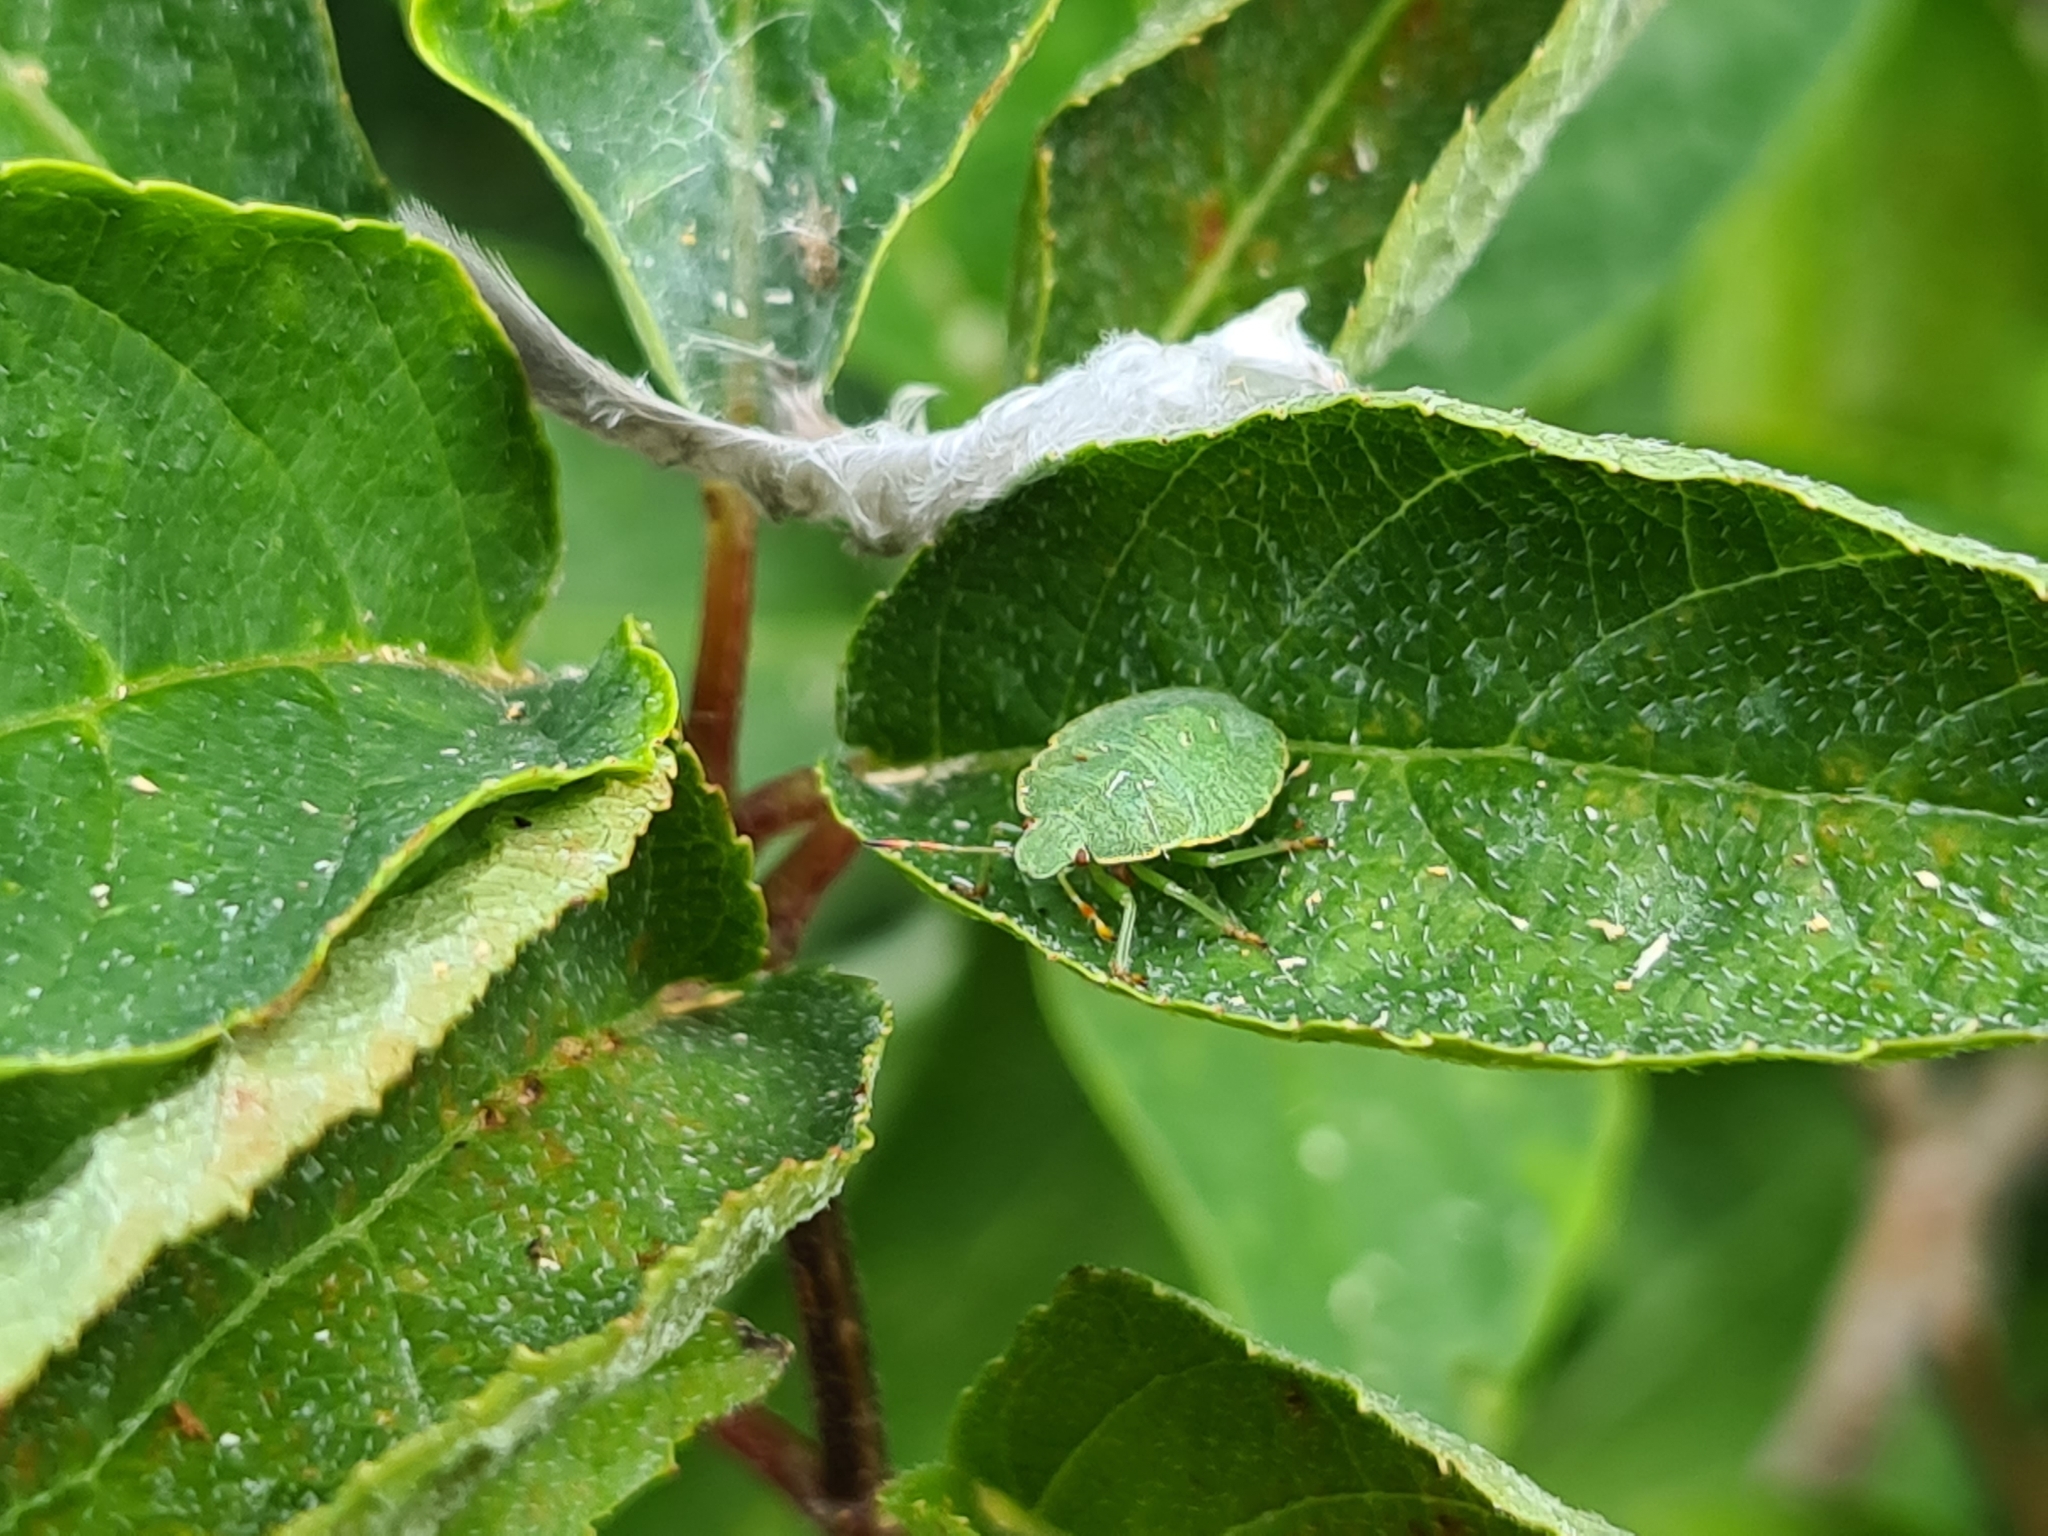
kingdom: Animalia
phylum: Arthropoda
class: Insecta
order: Hemiptera
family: Pentatomidae
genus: Palomena
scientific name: Palomena prasina
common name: Green shieldbug
